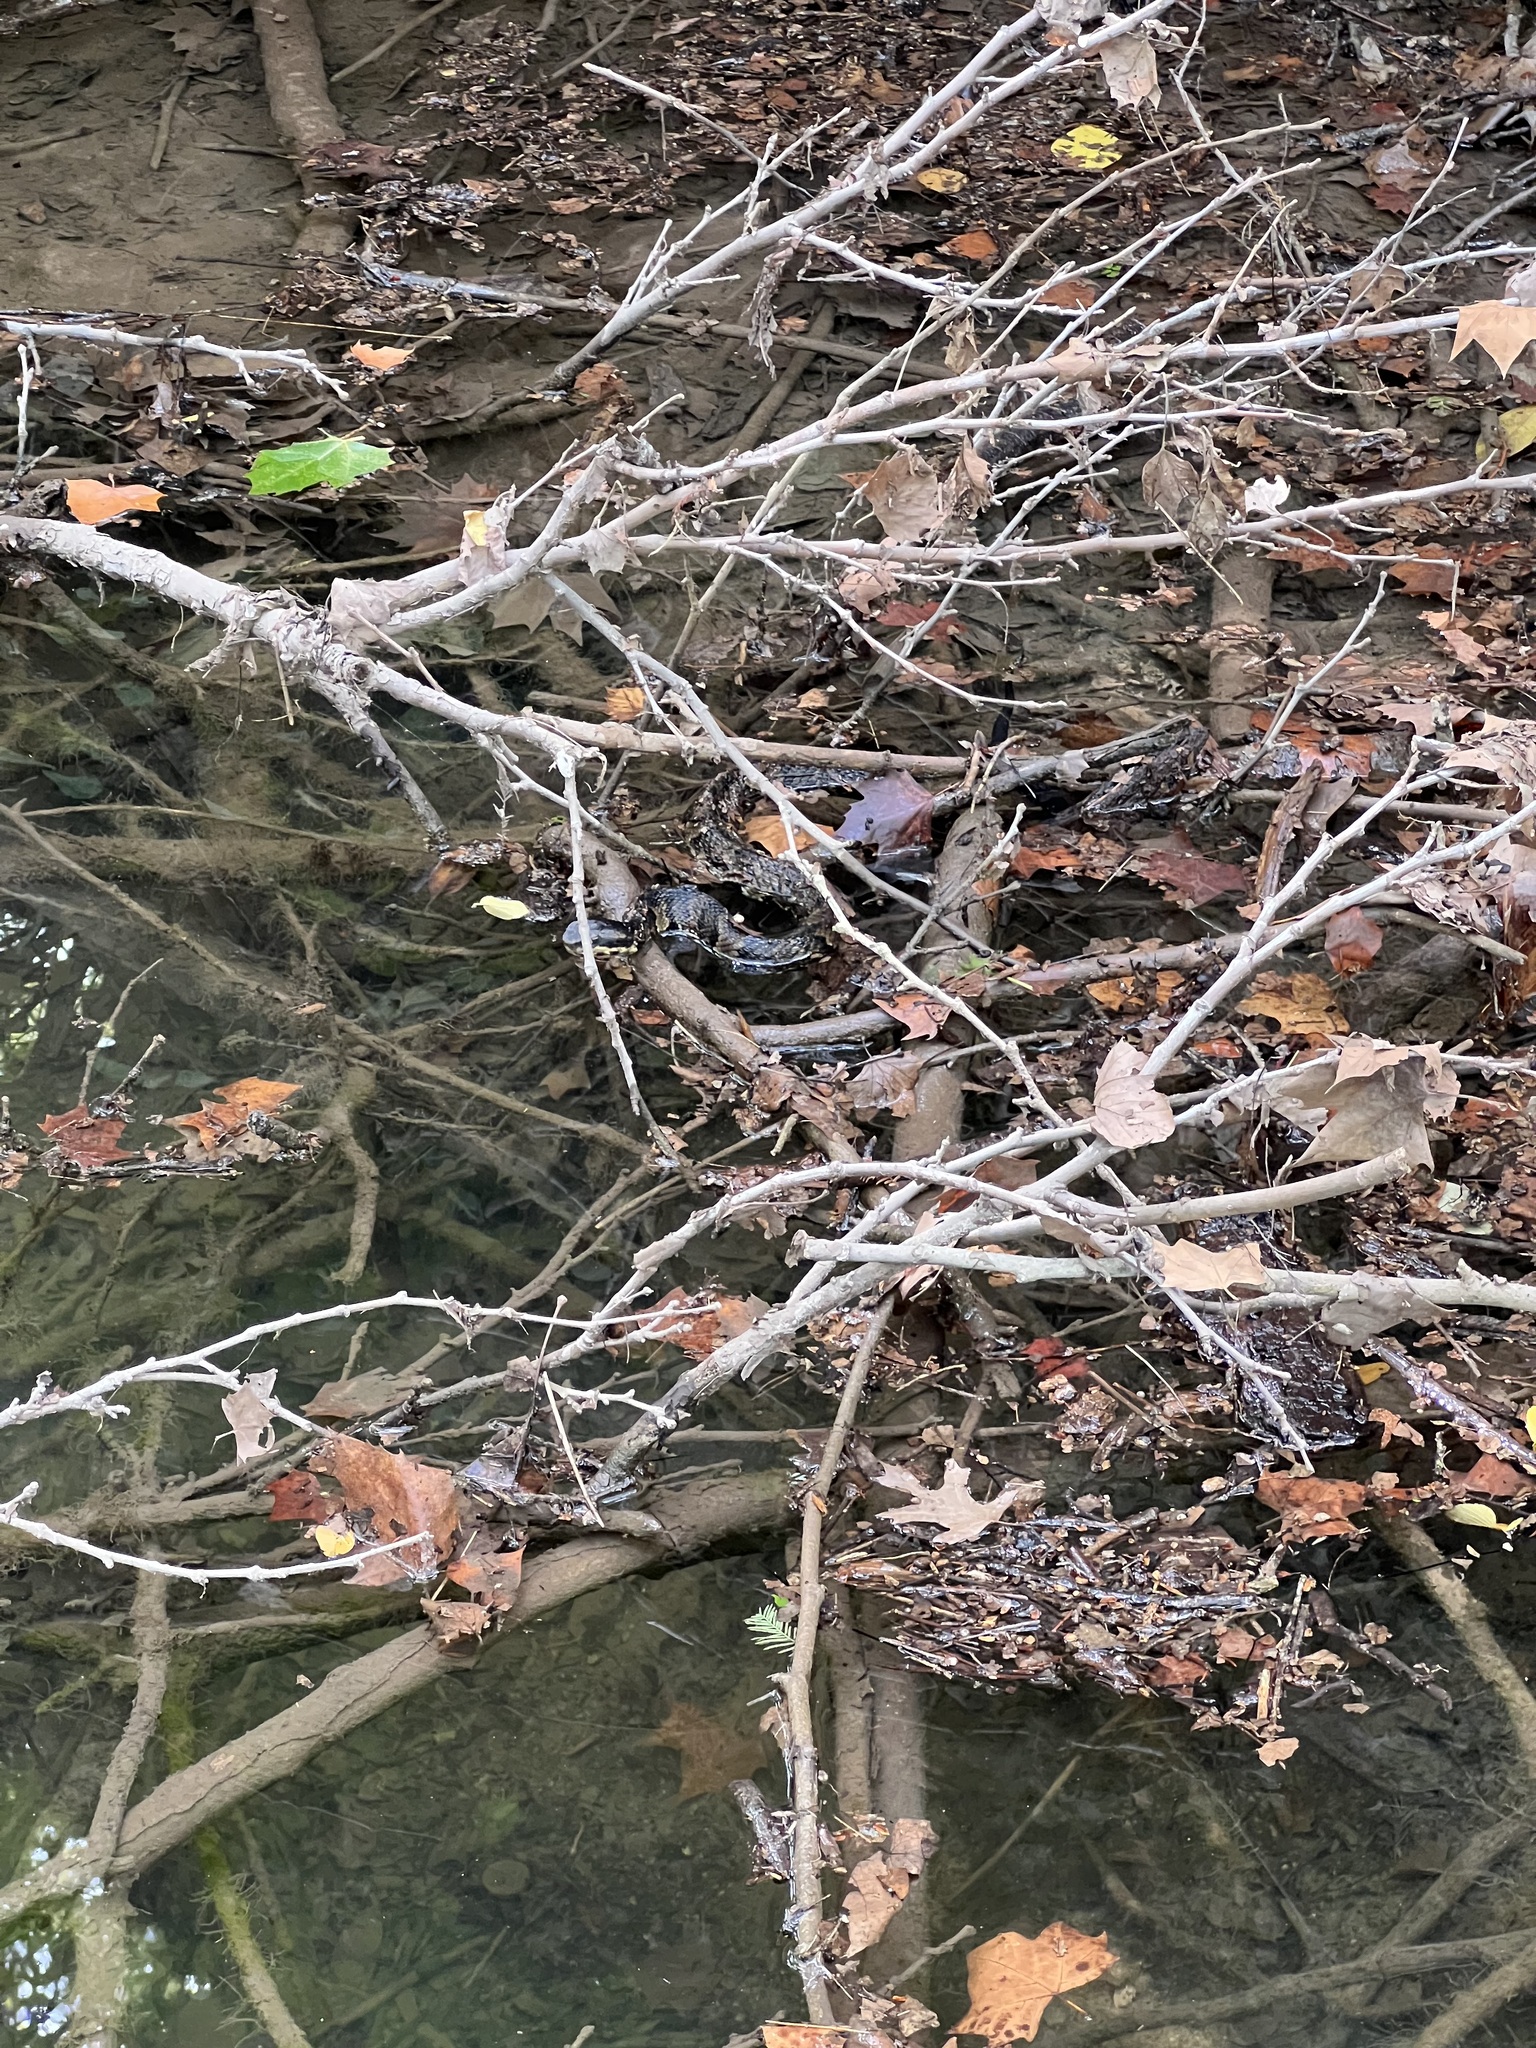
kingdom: Animalia
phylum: Chordata
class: Squamata
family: Viperidae
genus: Agkistrodon
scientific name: Agkistrodon piscivorus
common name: Cottonmouth
